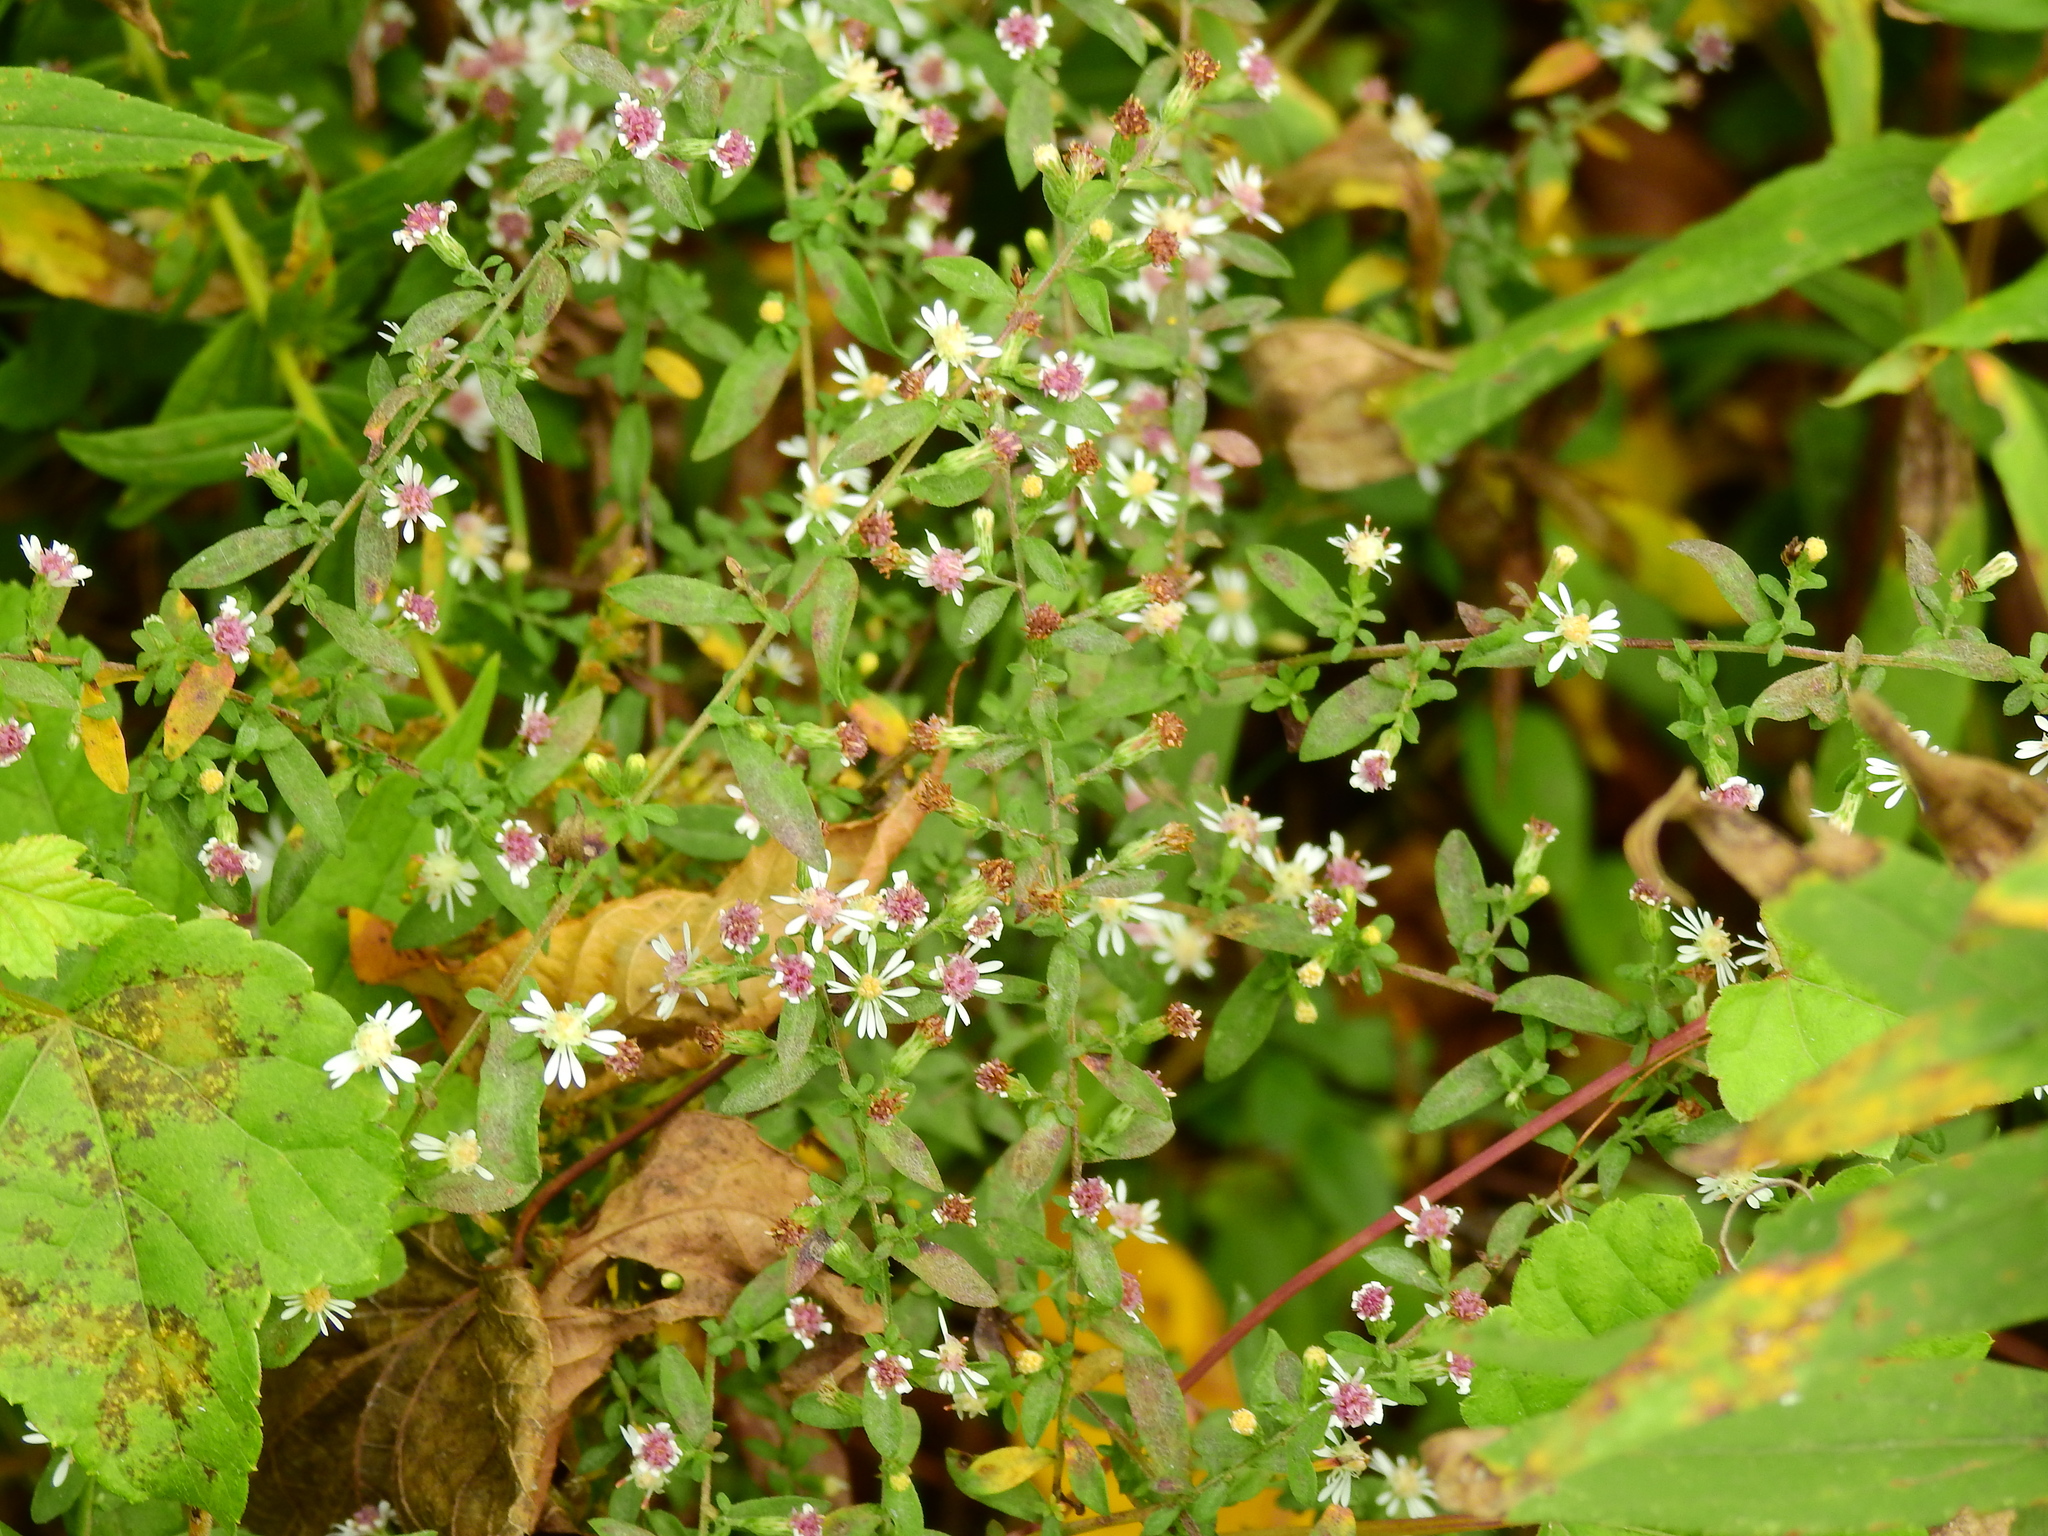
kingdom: Plantae
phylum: Tracheophyta
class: Magnoliopsida
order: Asterales
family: Asteraceae
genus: Symphyotrichum
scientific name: Symphyotrichum lateriflorum
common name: Calico aster
